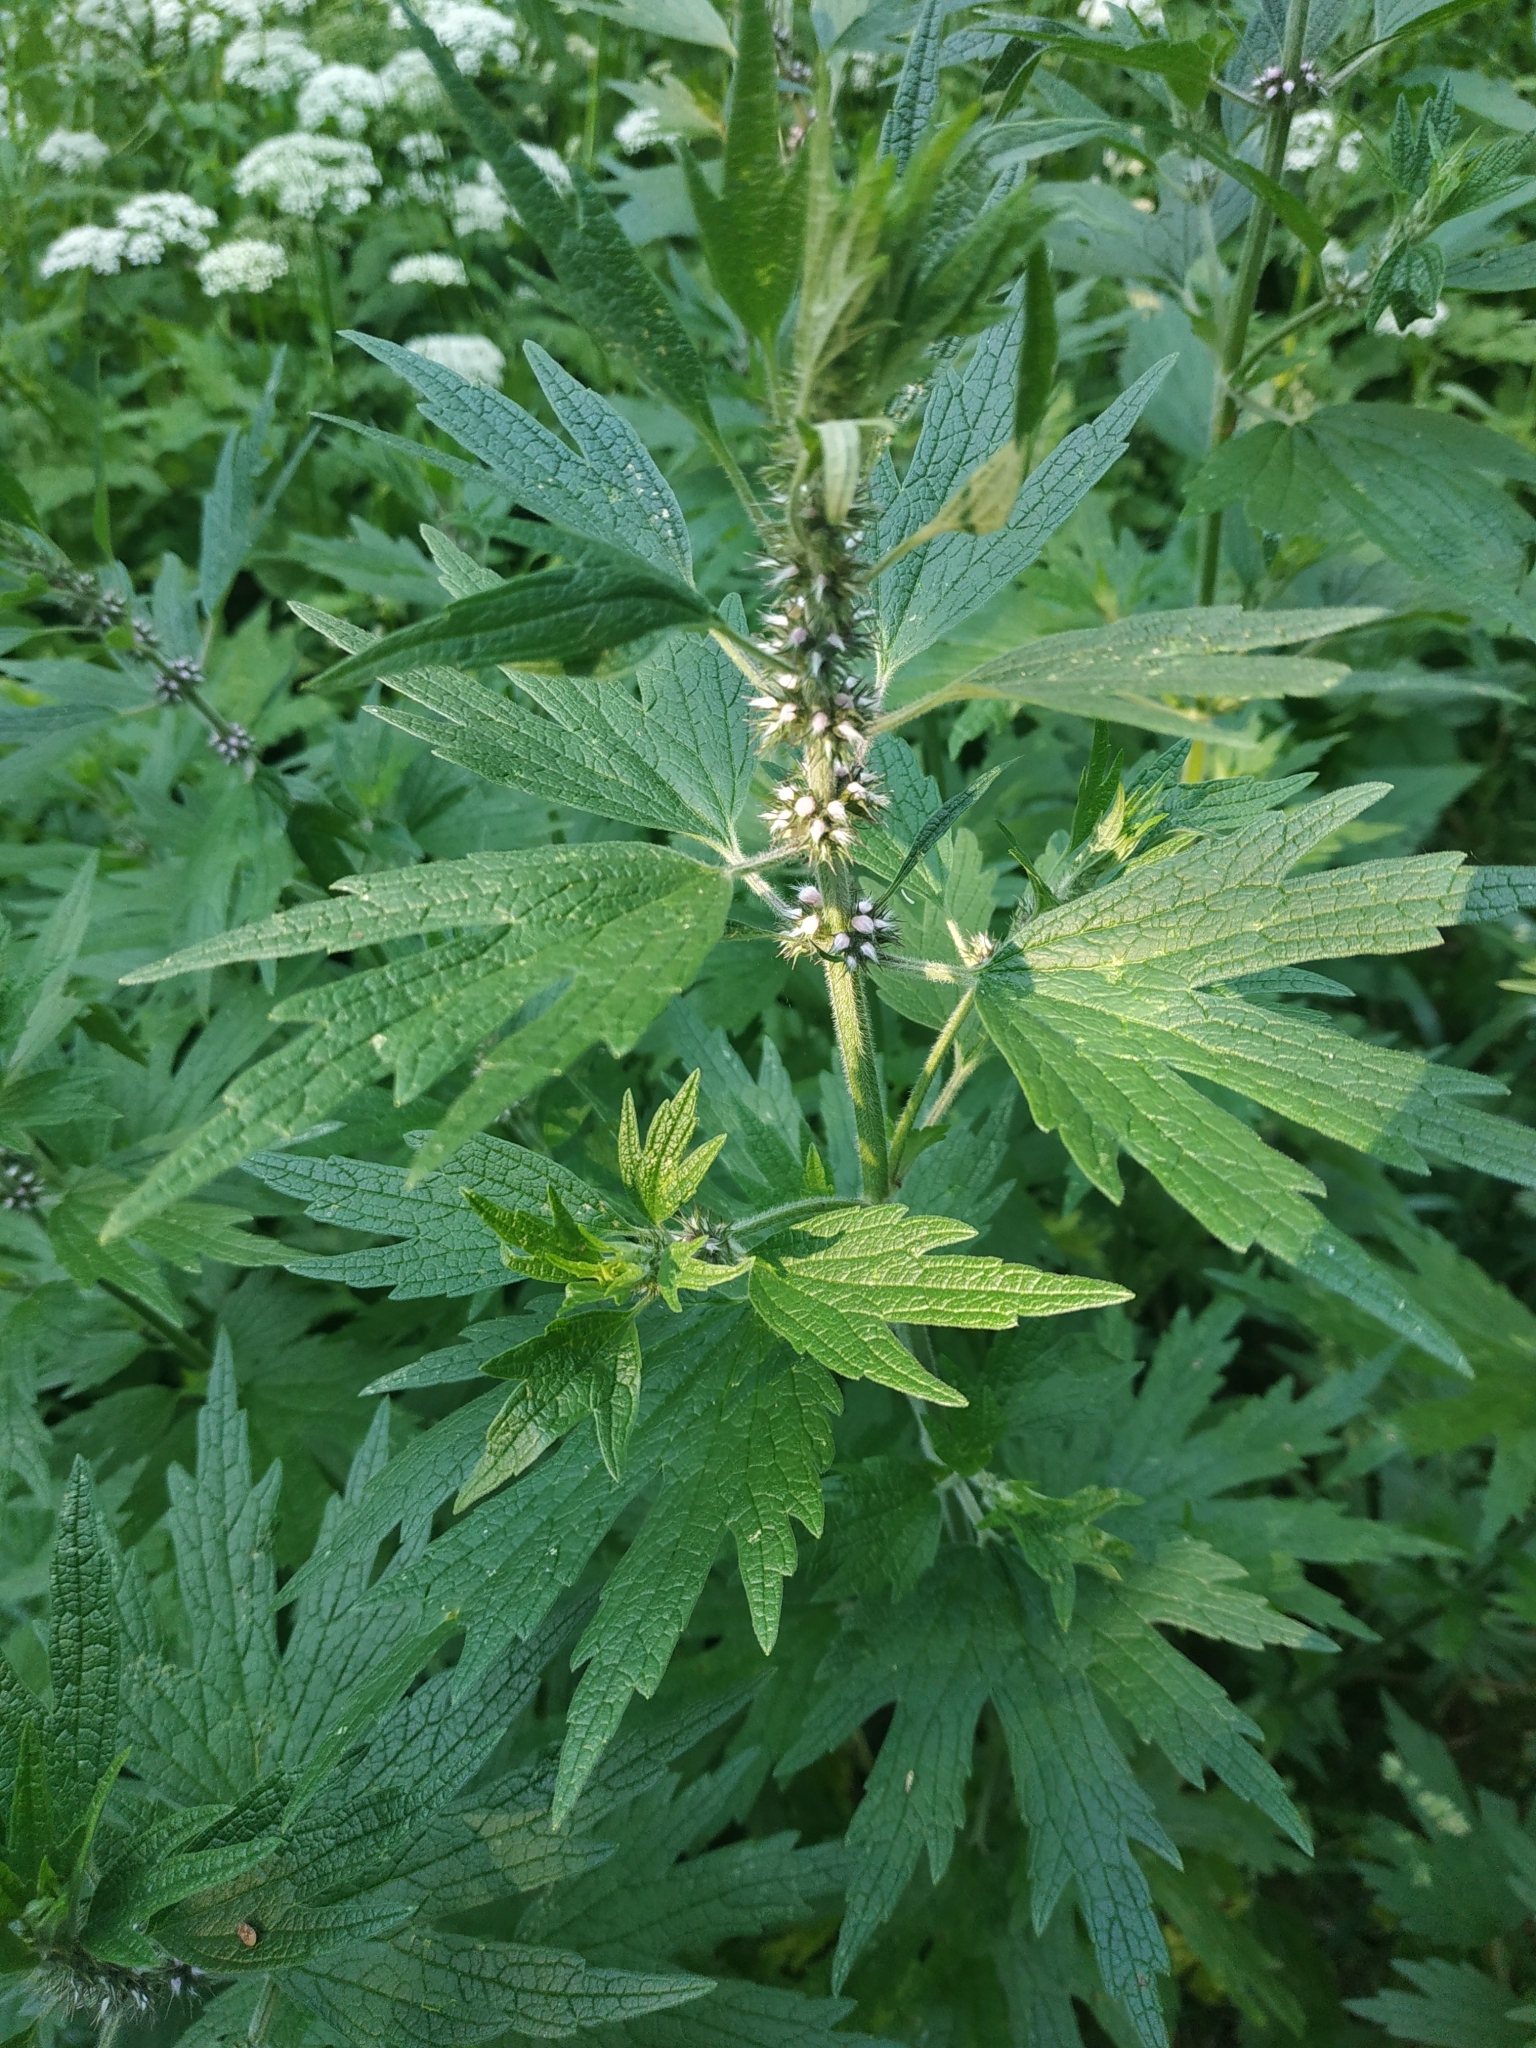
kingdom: Plantae
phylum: Tracheophyta
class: Magnoliopsida
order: Lamiales
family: Lamiaceae
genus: Leonurus
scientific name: Leonurus quinquelobatus
